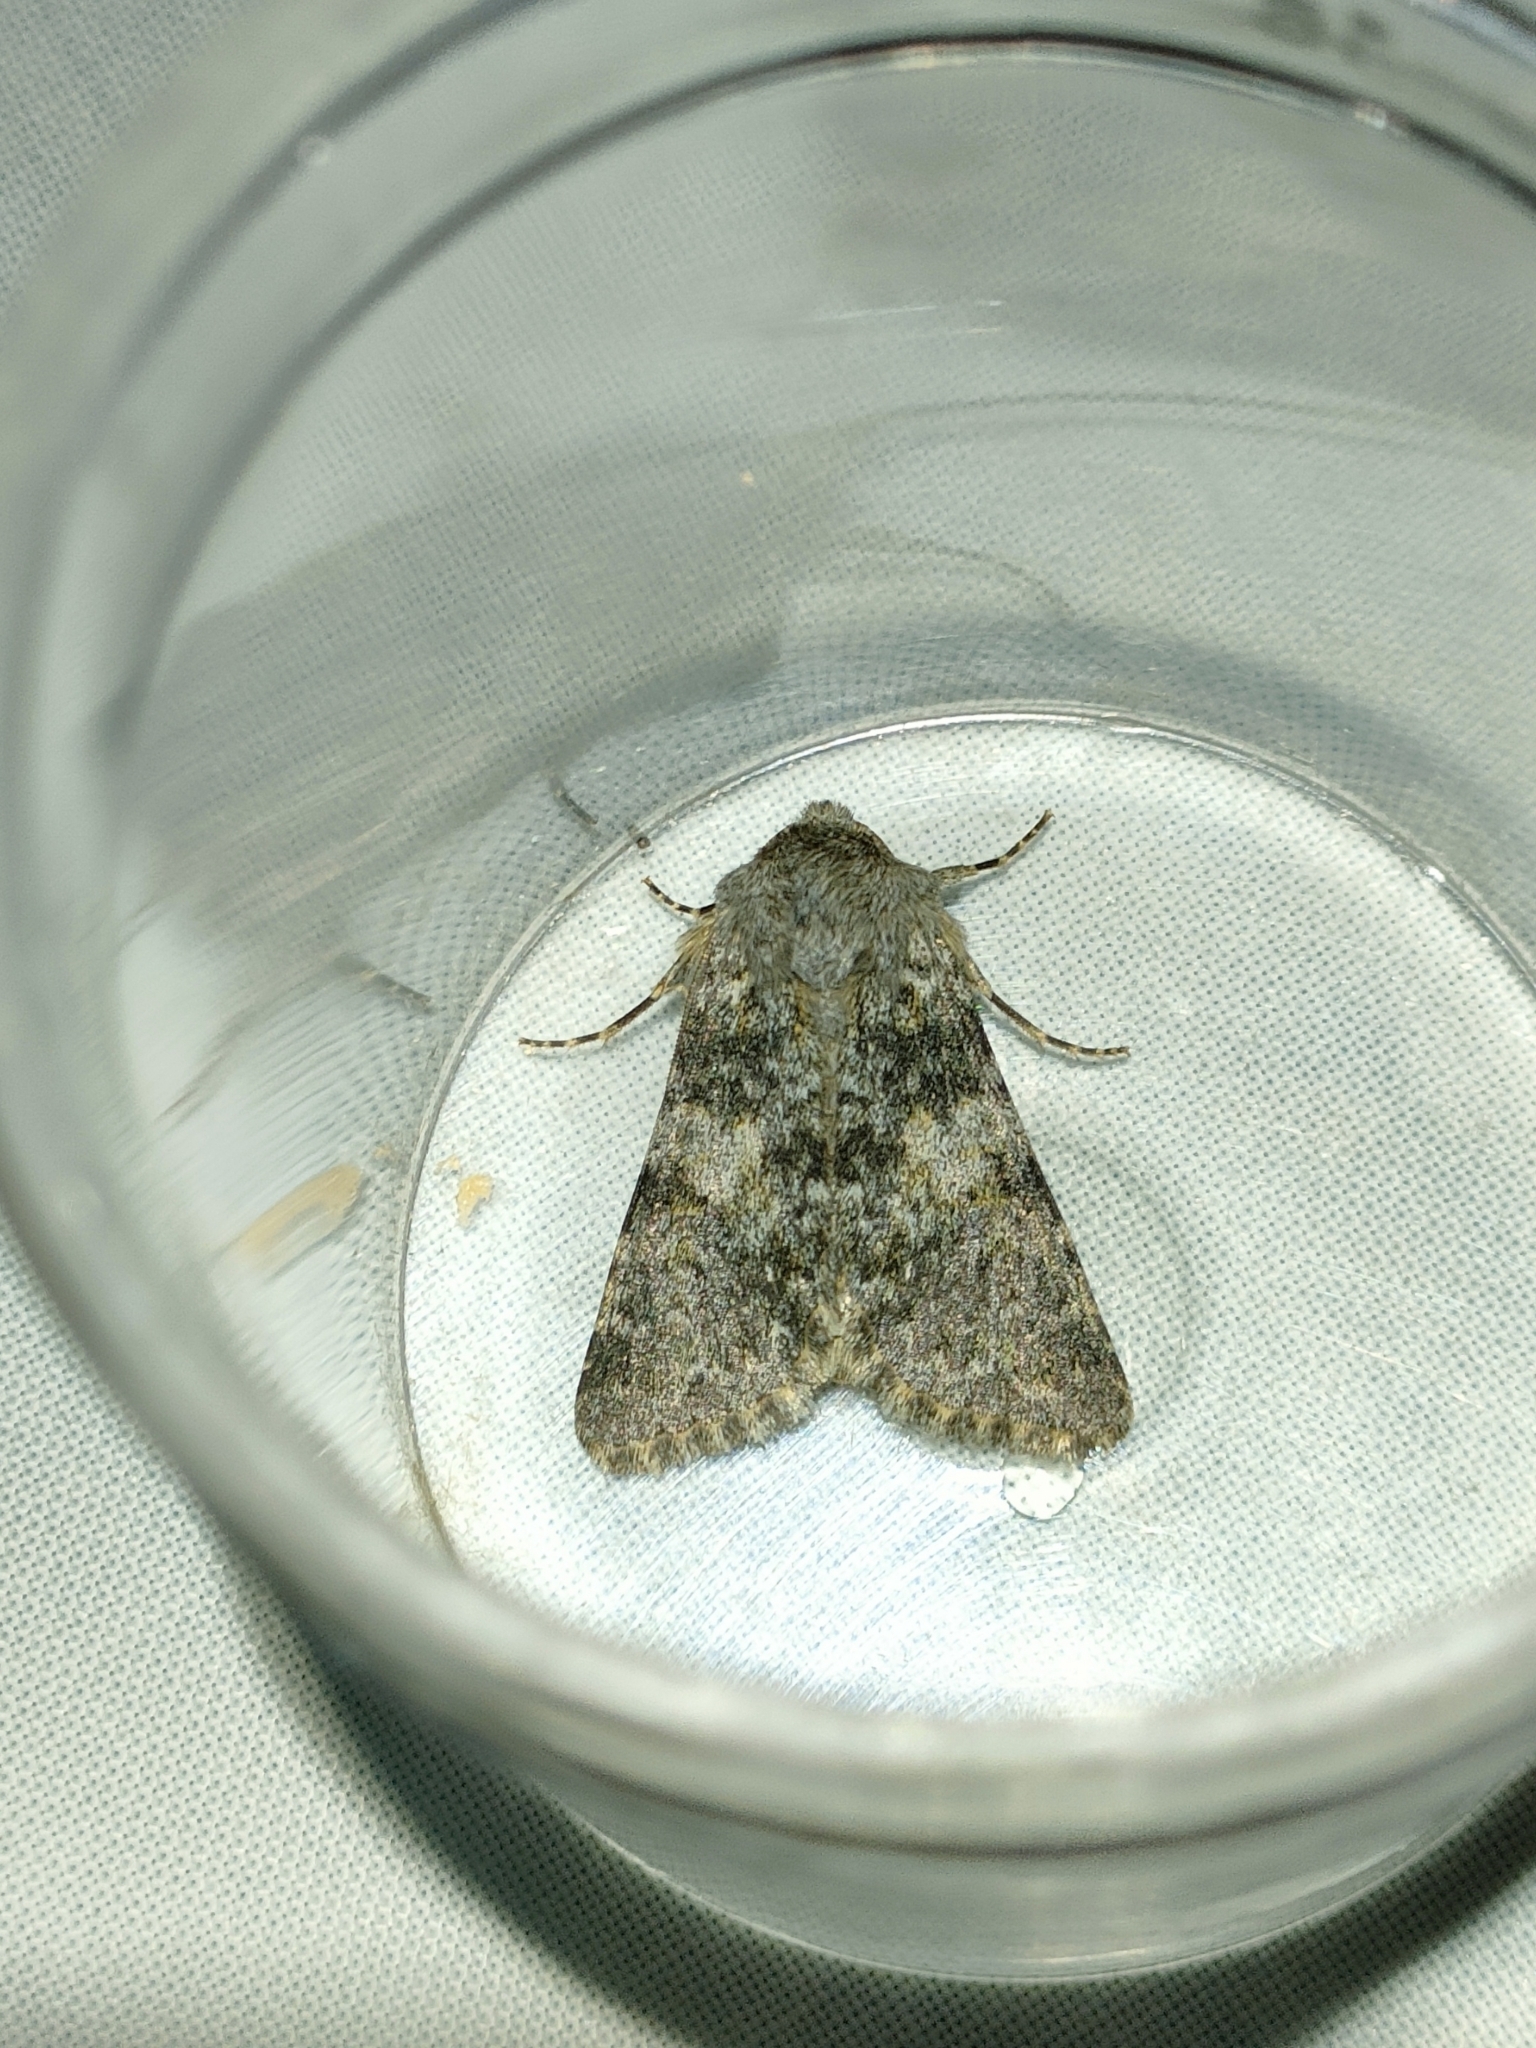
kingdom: Animalia
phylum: Arthropoda
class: Insecta
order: Lepidoptera
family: Noctuidae
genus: Hadena
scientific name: Hadena caesia
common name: Grey
